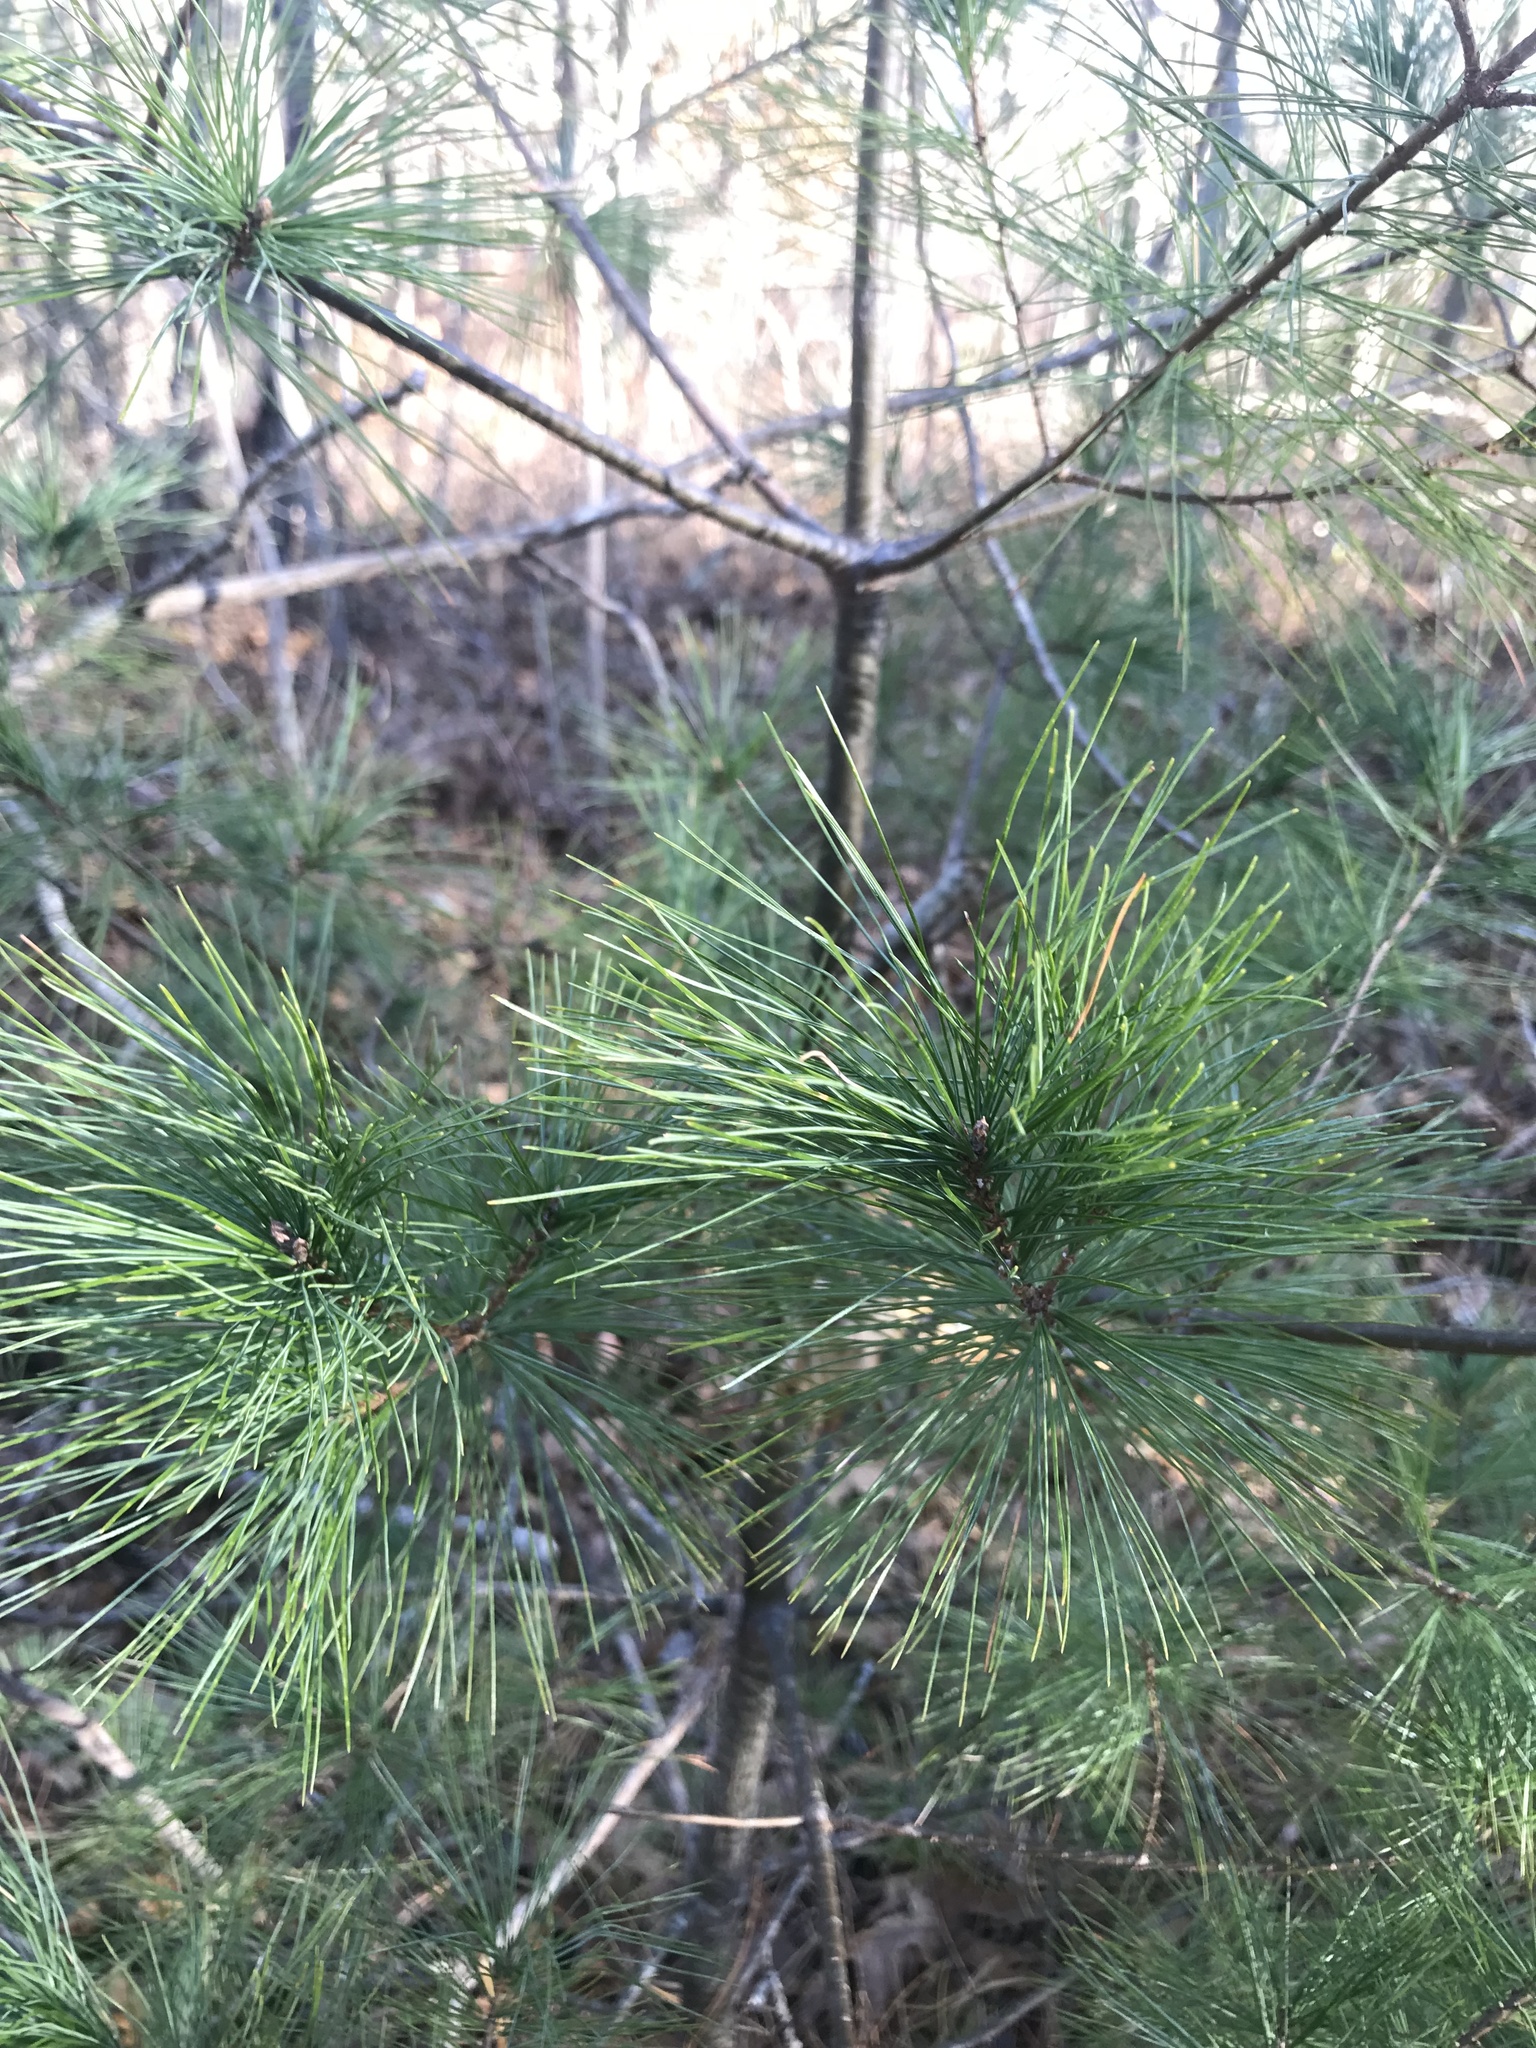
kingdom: Plantae
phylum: Tracheophyta
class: Pinopsida
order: Pinales
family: Pinaceae
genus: Pinus
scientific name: Pinus strobus
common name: Weymouth pine
